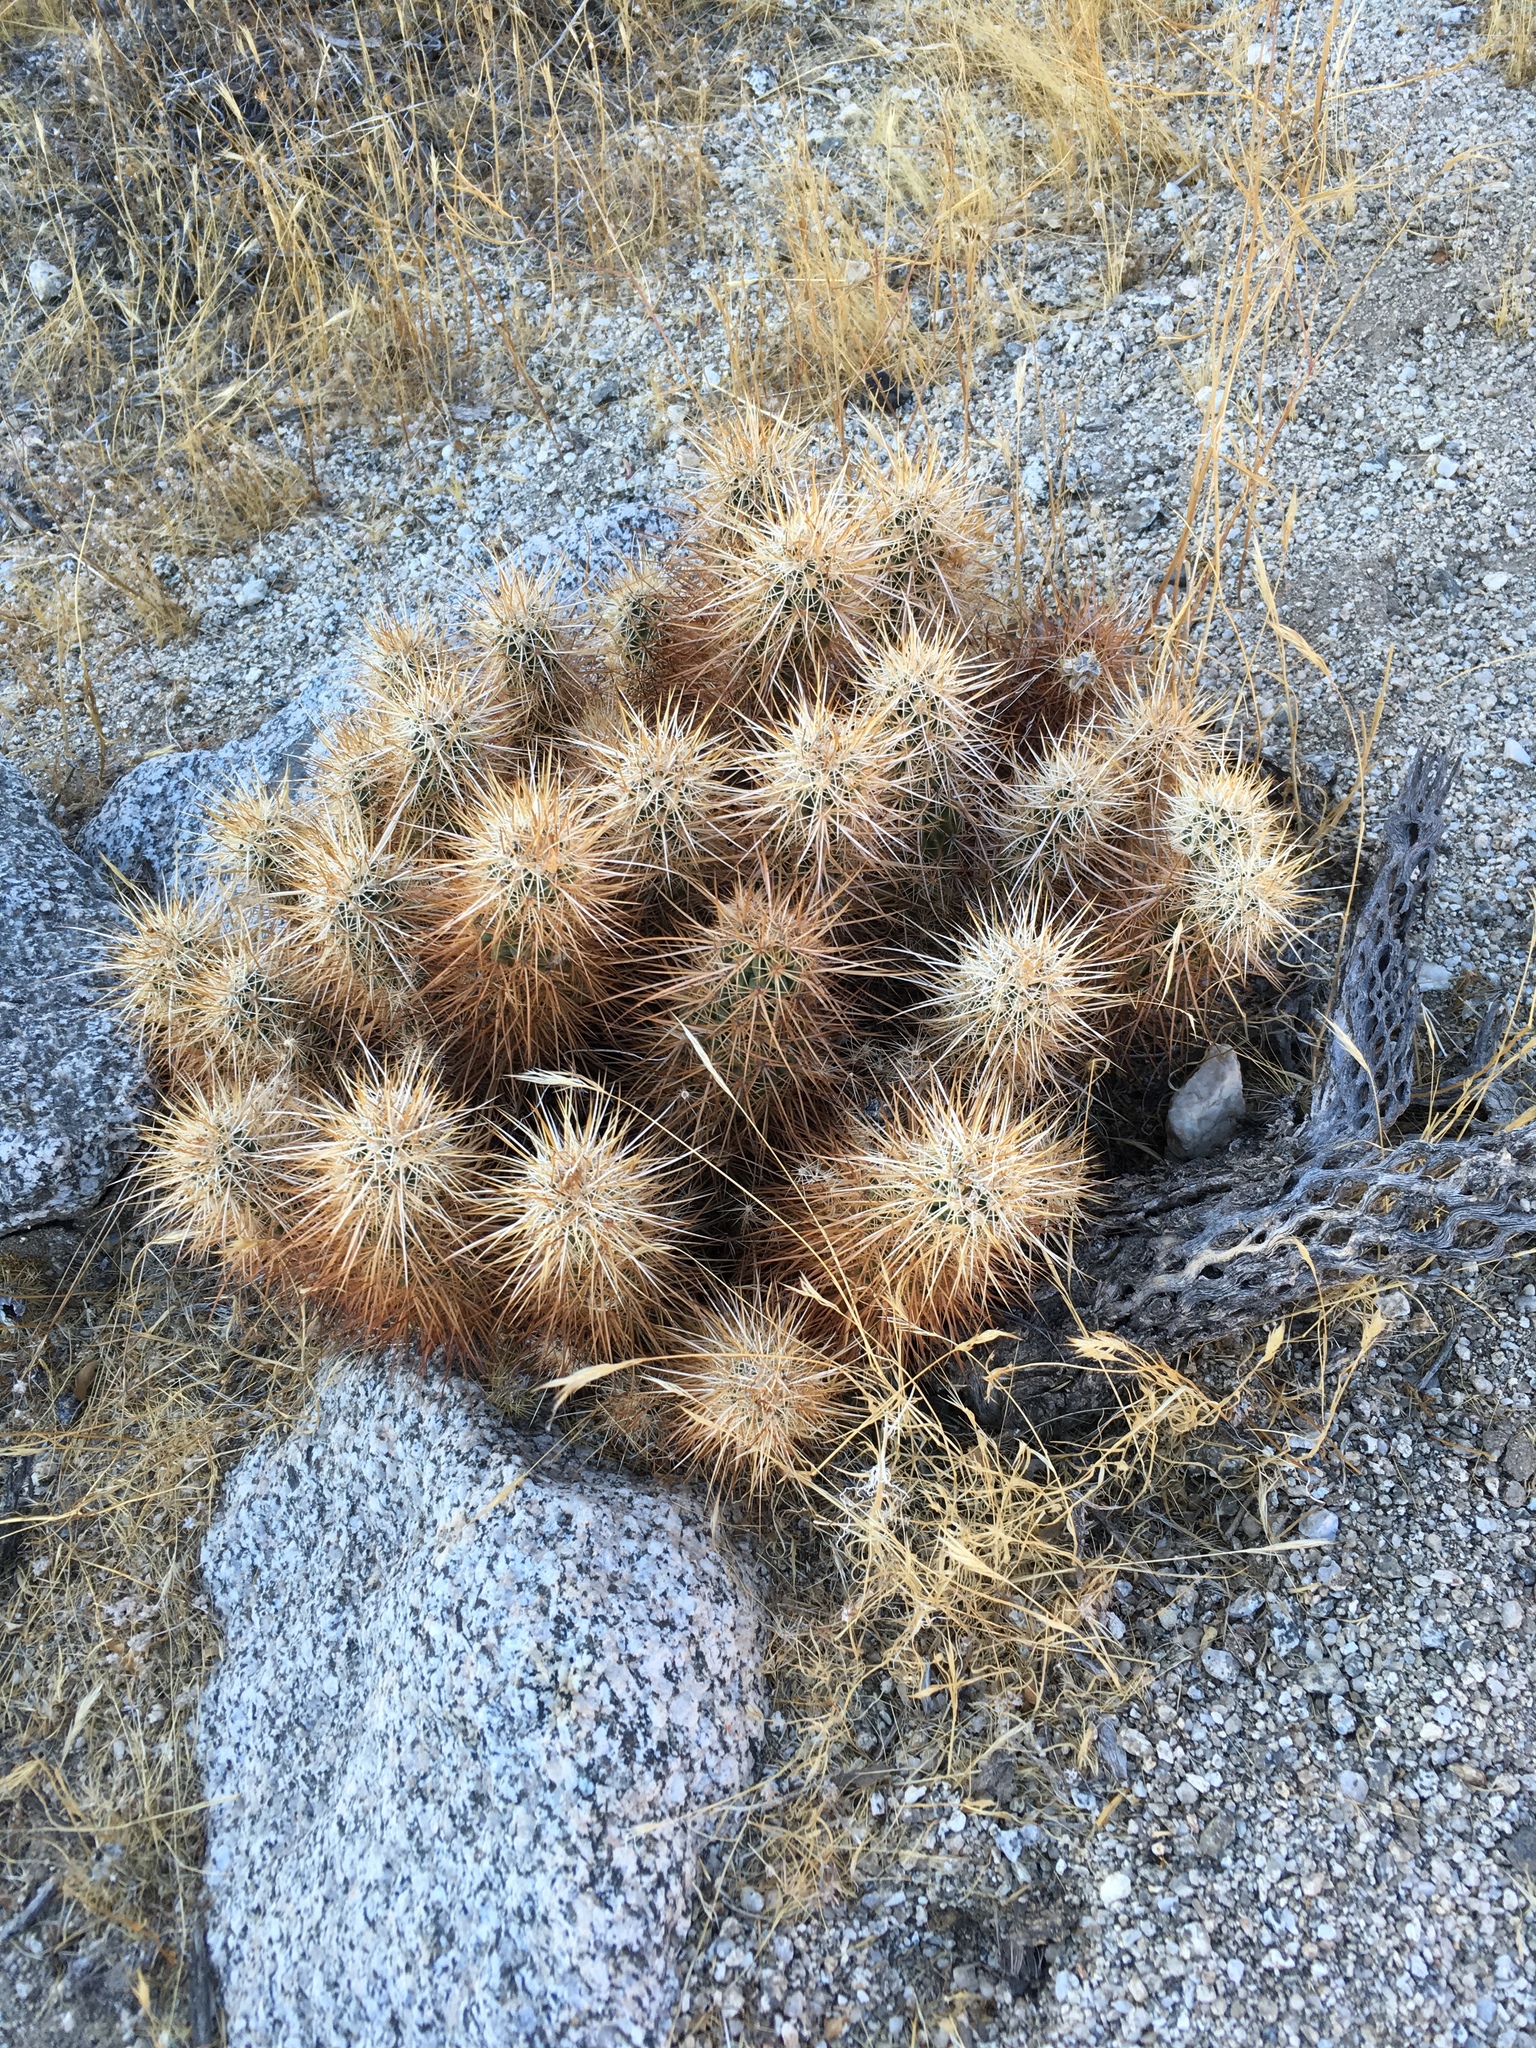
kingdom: Plantae
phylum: Tracheophyta
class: Magnoliopsida
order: Caryophyllales
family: Cactaceae
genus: Echinocereus
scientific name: Echinocereus engelmannii
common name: Engelmann's hedgehog cactus
